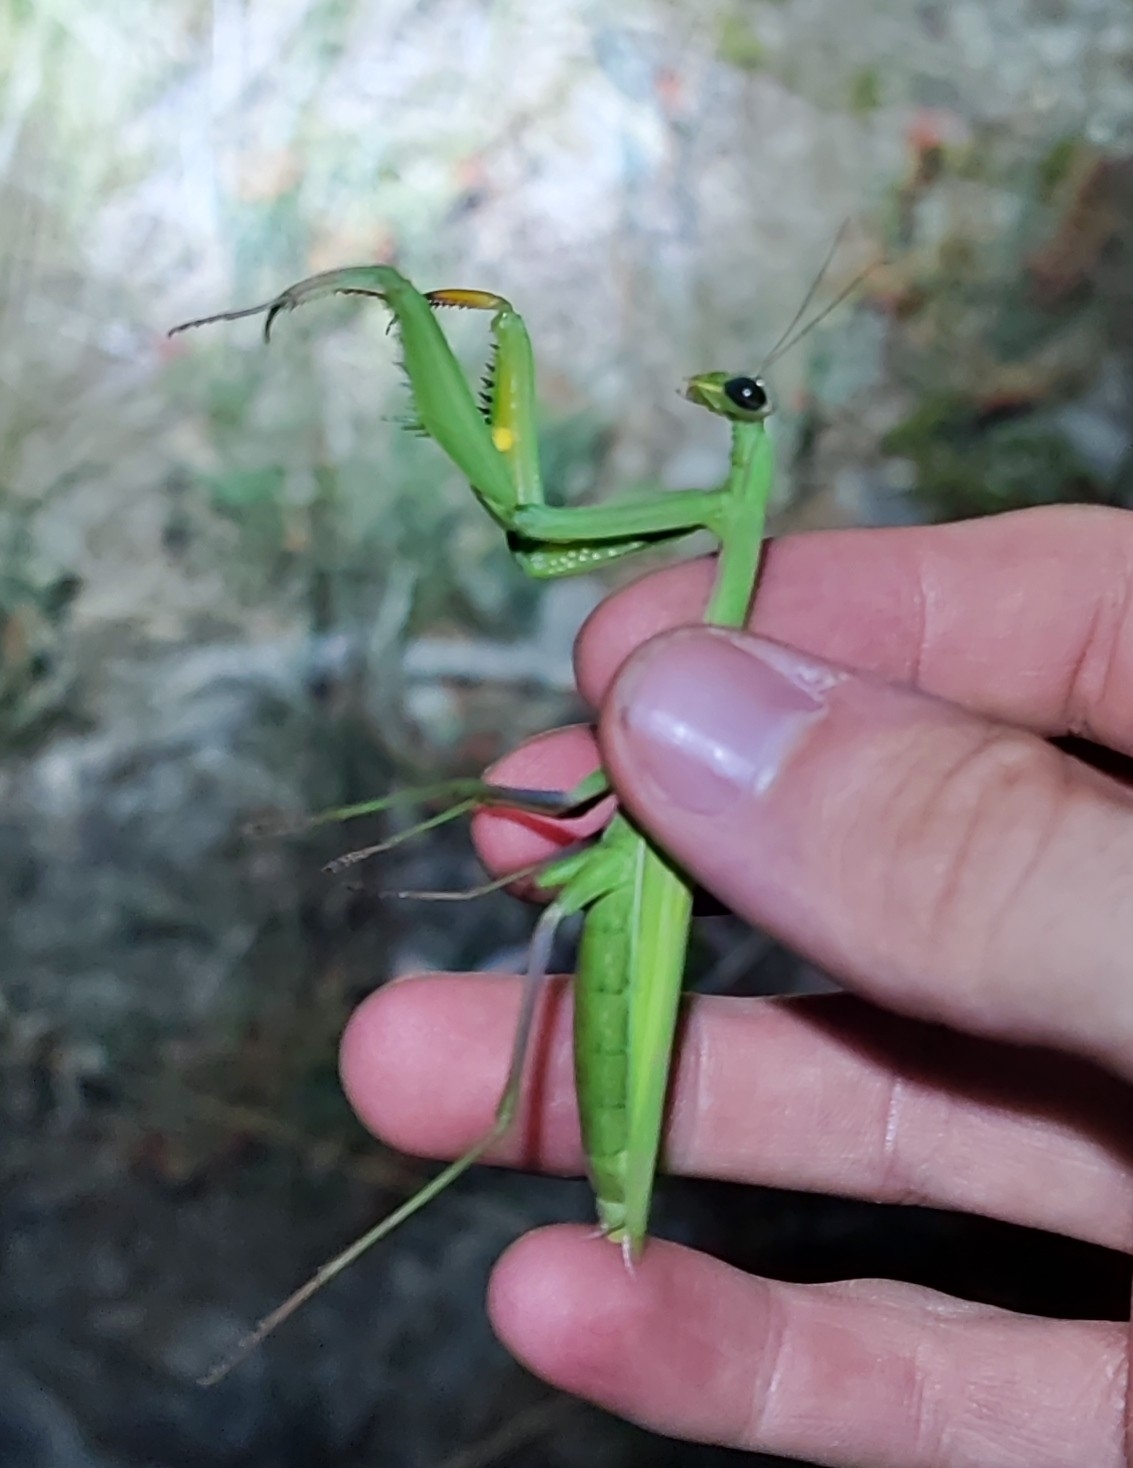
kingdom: Animalia
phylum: Arthropoda
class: Insecta
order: Mantodea
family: Mantidae
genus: Mantis
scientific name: Mantis religiosa
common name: Praying mantis
